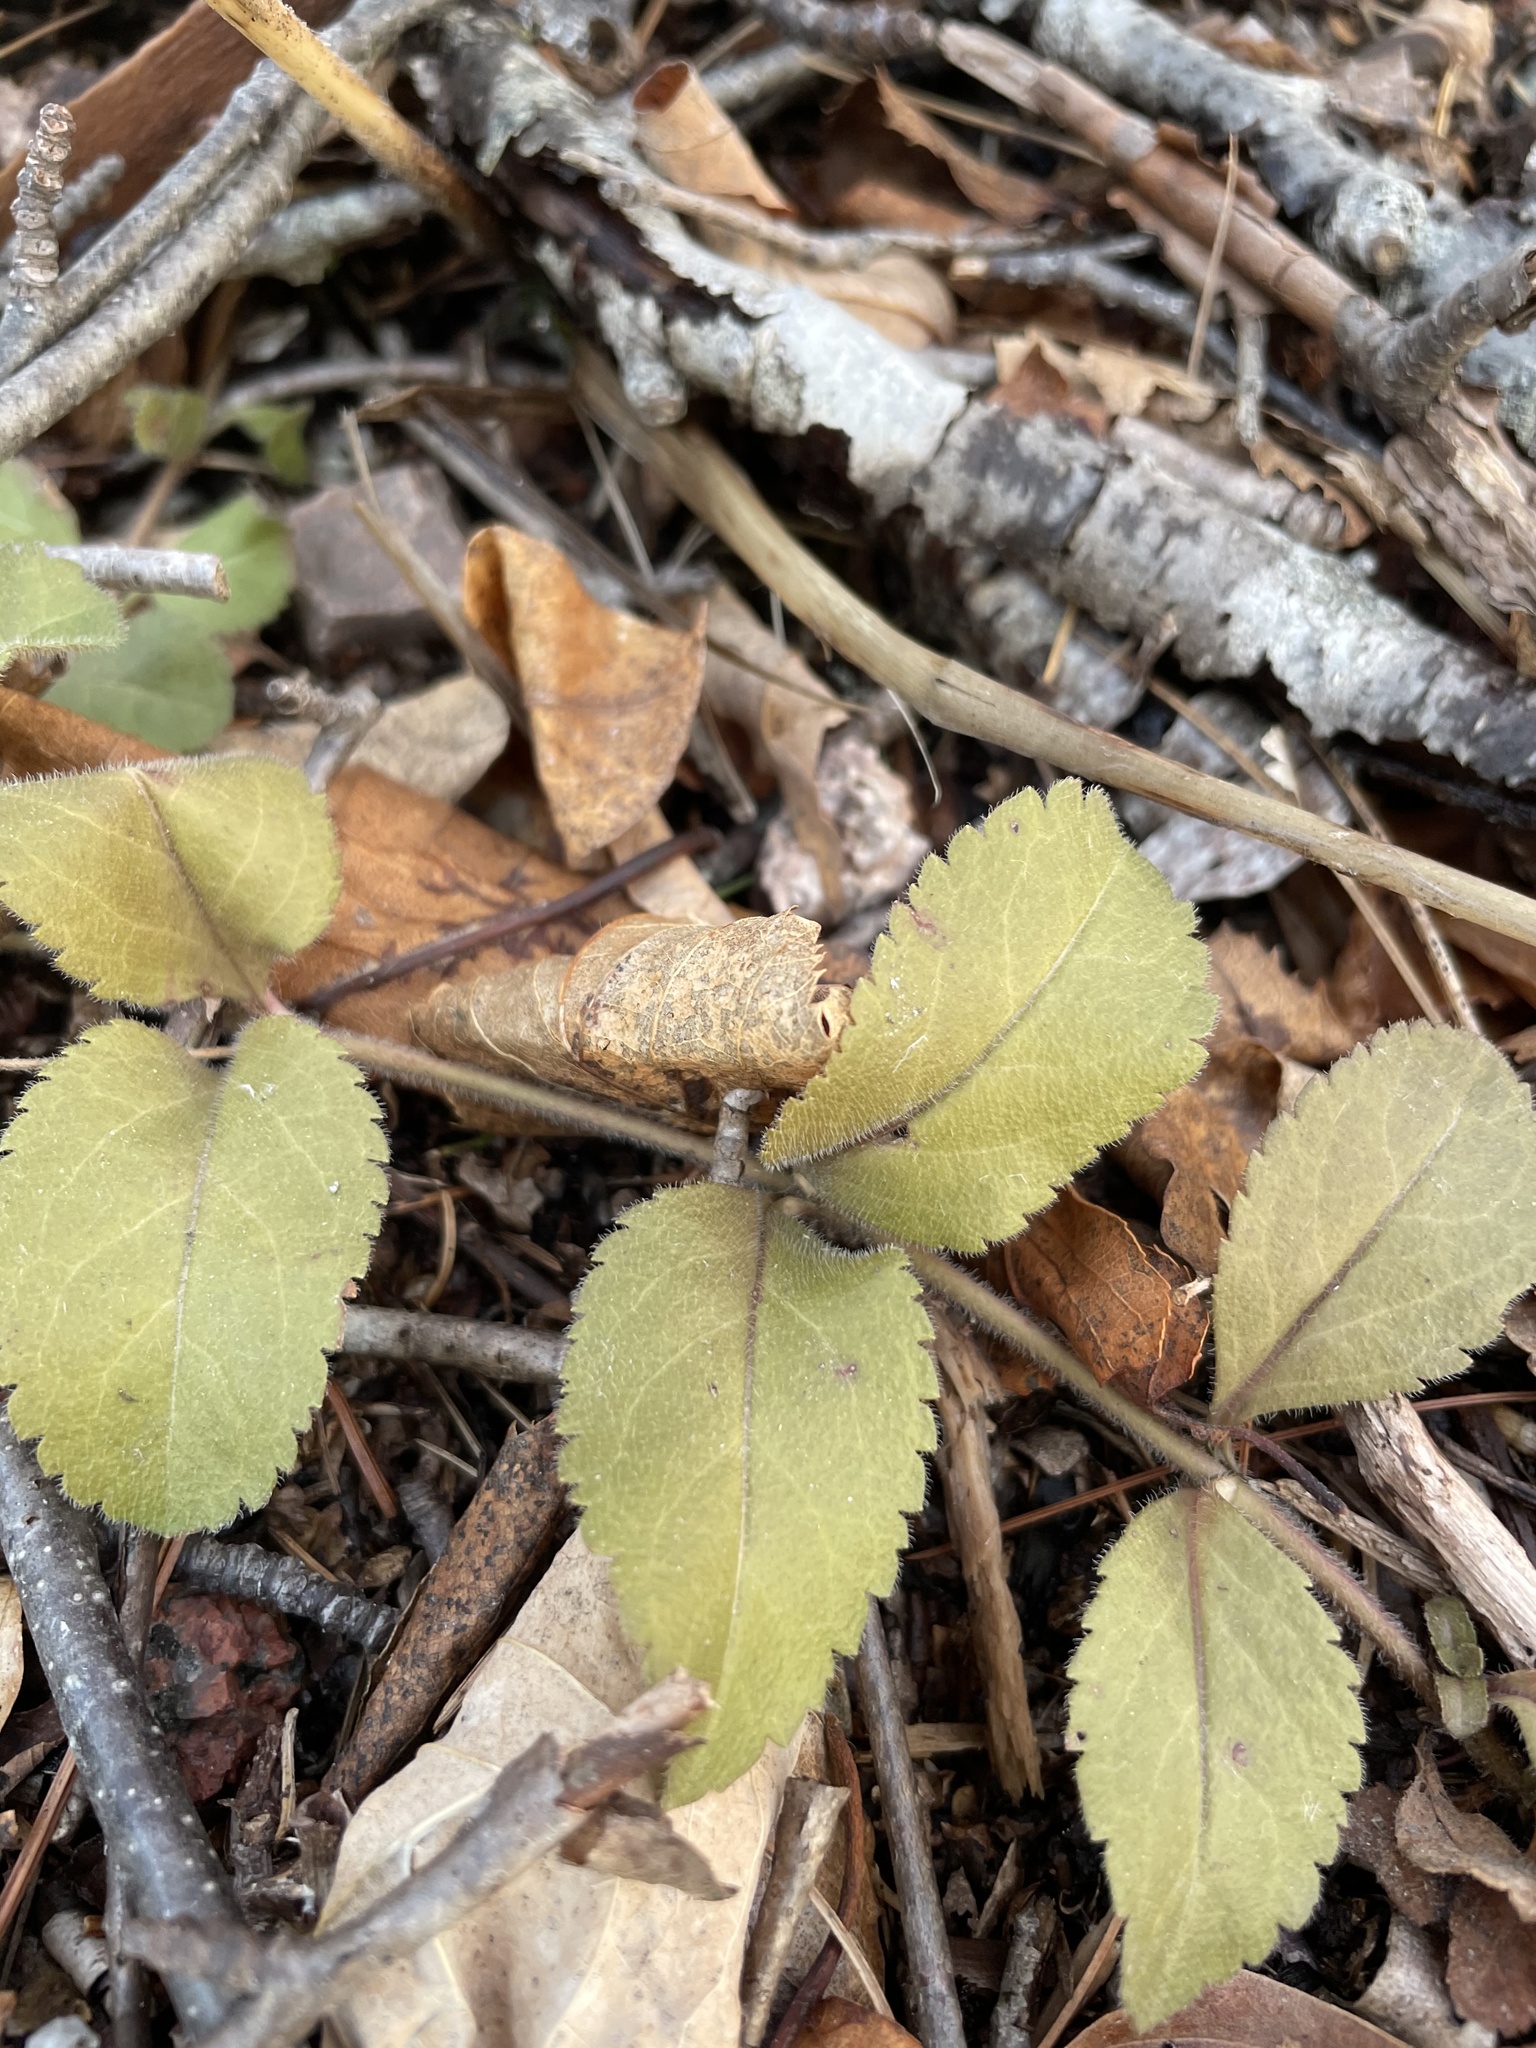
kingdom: Plantae
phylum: Tracheophyta
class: Magnoliopsida
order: Lamiales
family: Plantaginaceae
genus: Veronica
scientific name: Veronica officinalis
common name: Common speedwell
